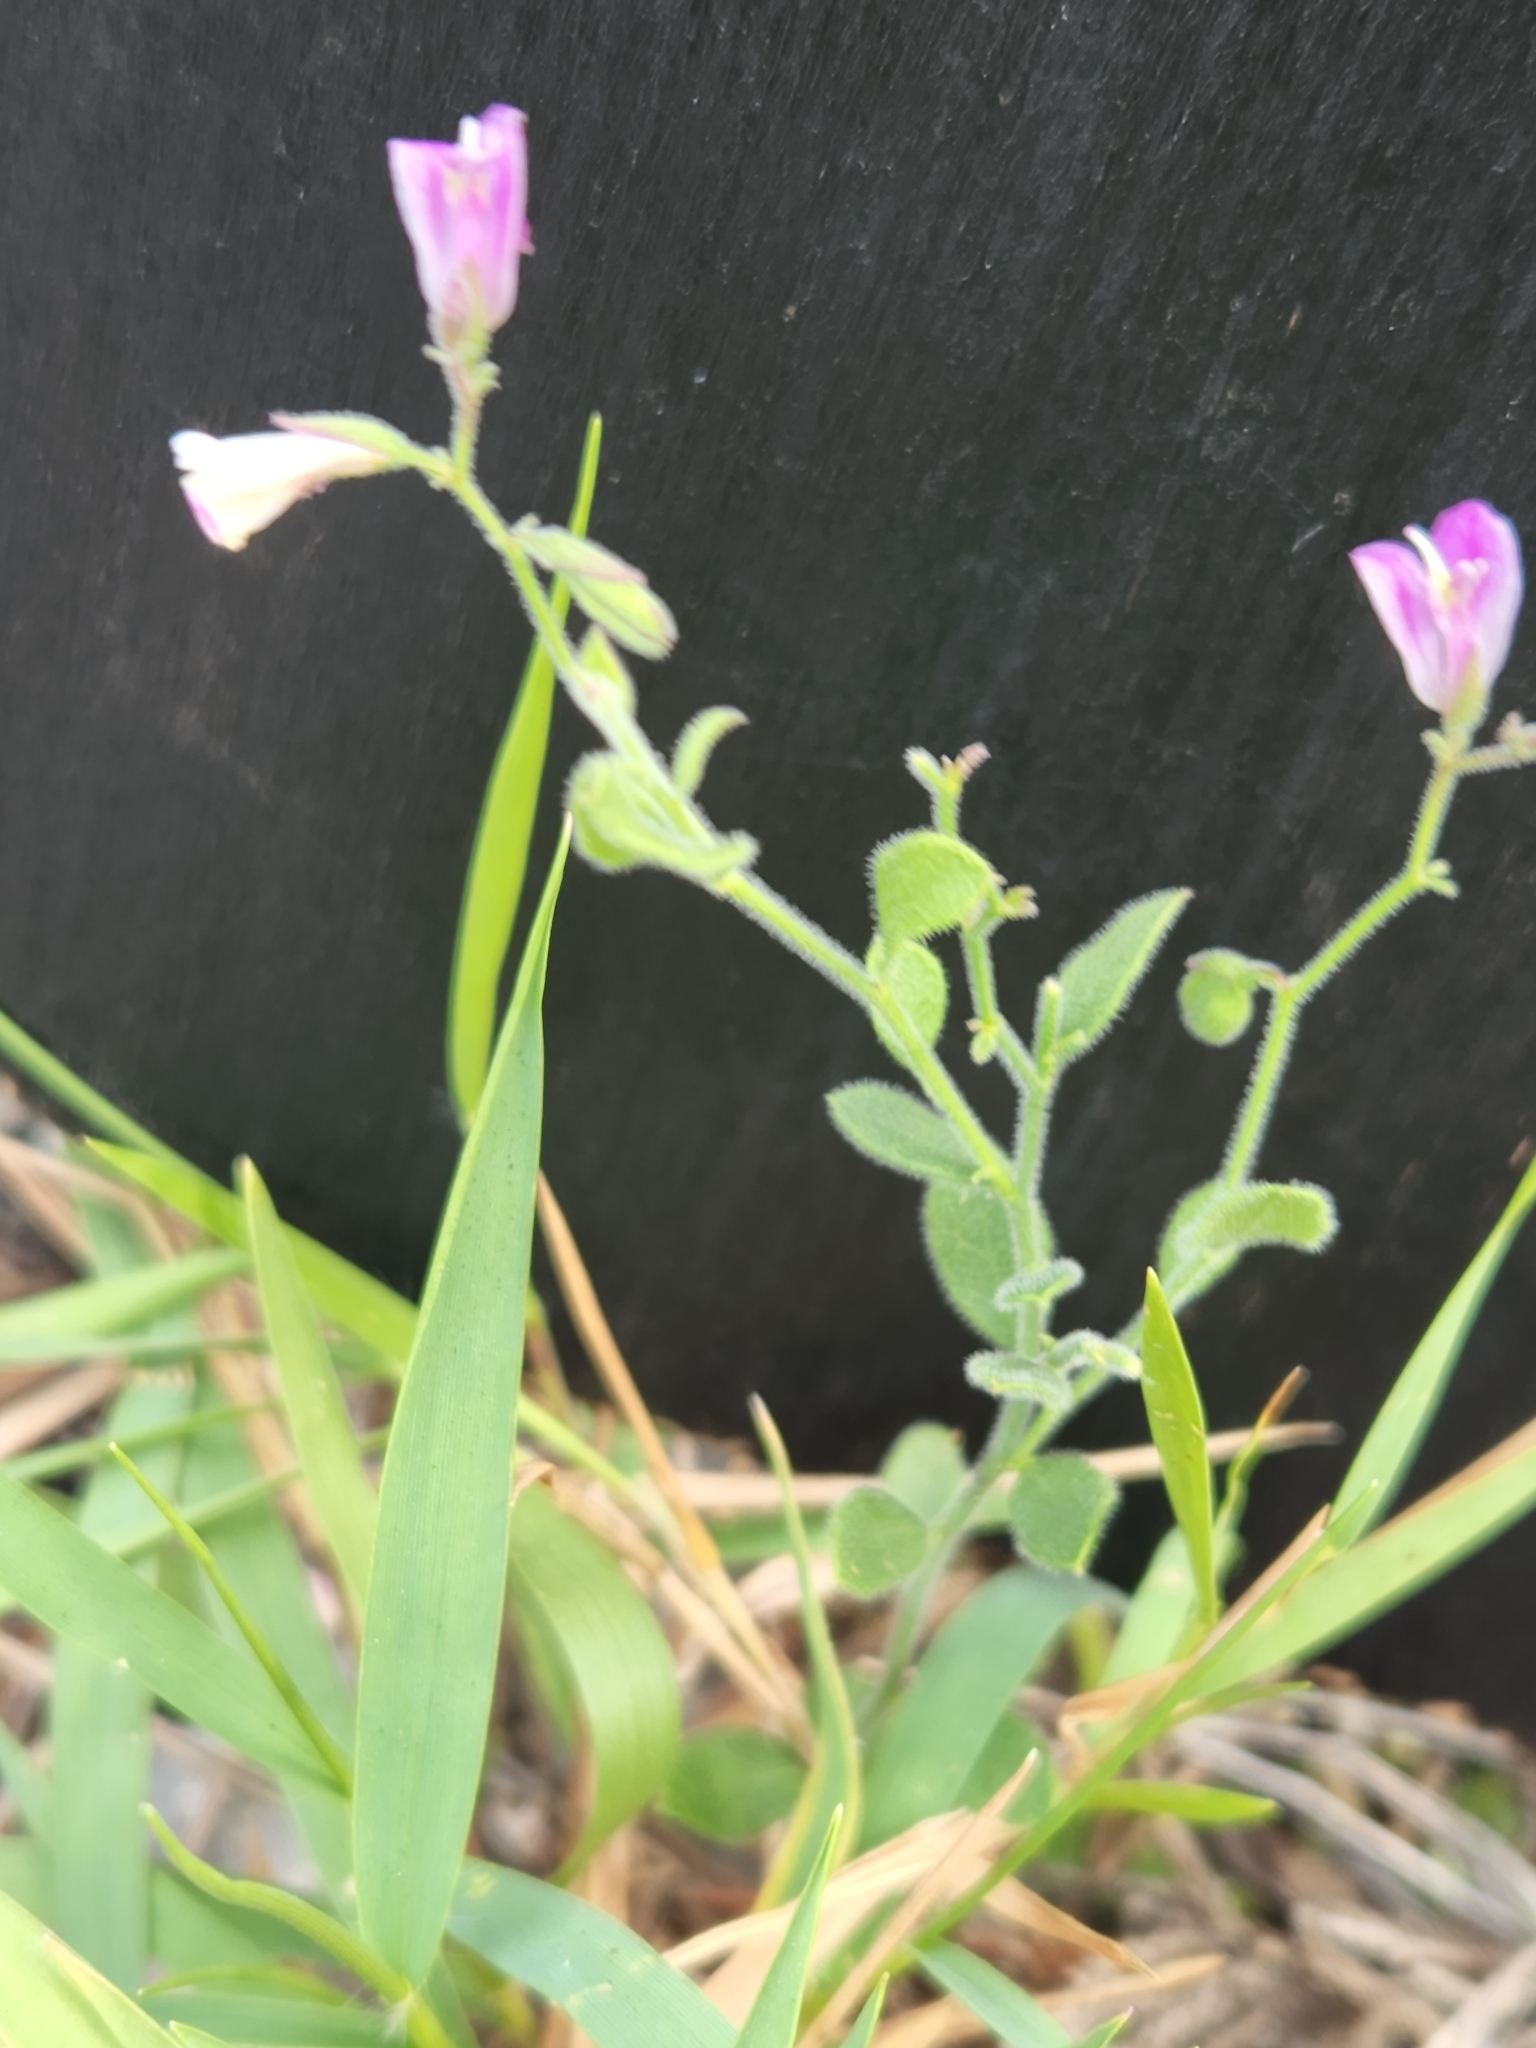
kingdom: Plantae
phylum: Tracheophyta
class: Magnoliopsida
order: Fabales
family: Polygalaceae
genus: Rhinotropis
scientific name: Rhinotropis lindheimeri
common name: Shrubby milkwort
